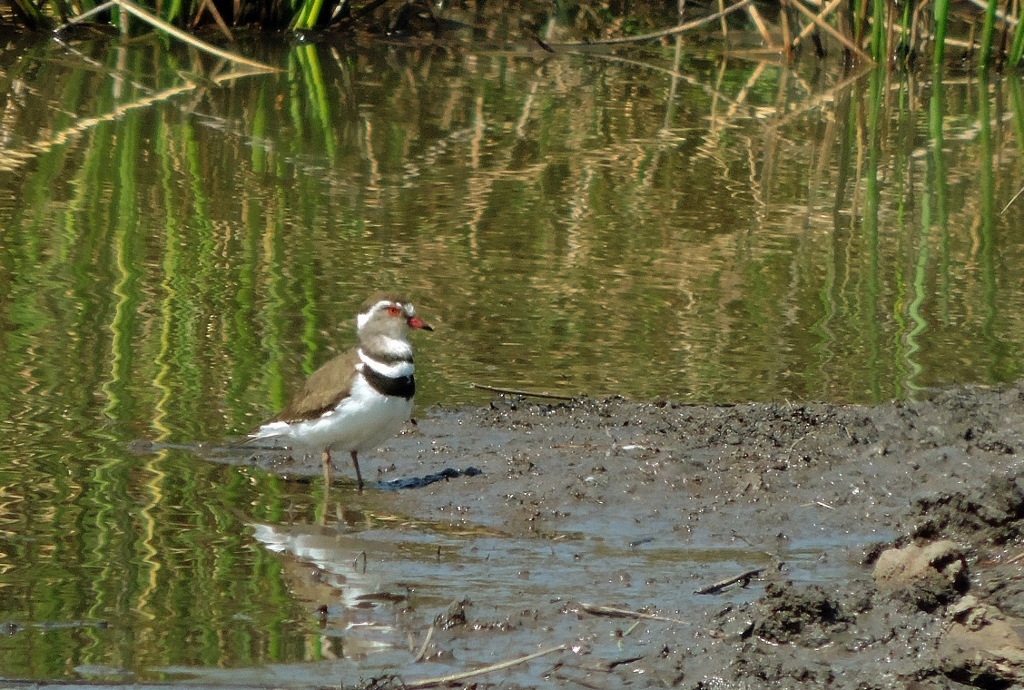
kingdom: Animalia
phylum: Chordata
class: Aves
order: Charadriiformes
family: Charadriidae
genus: Charadrius
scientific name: Charadrius tricollaris
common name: Three-banded plover
